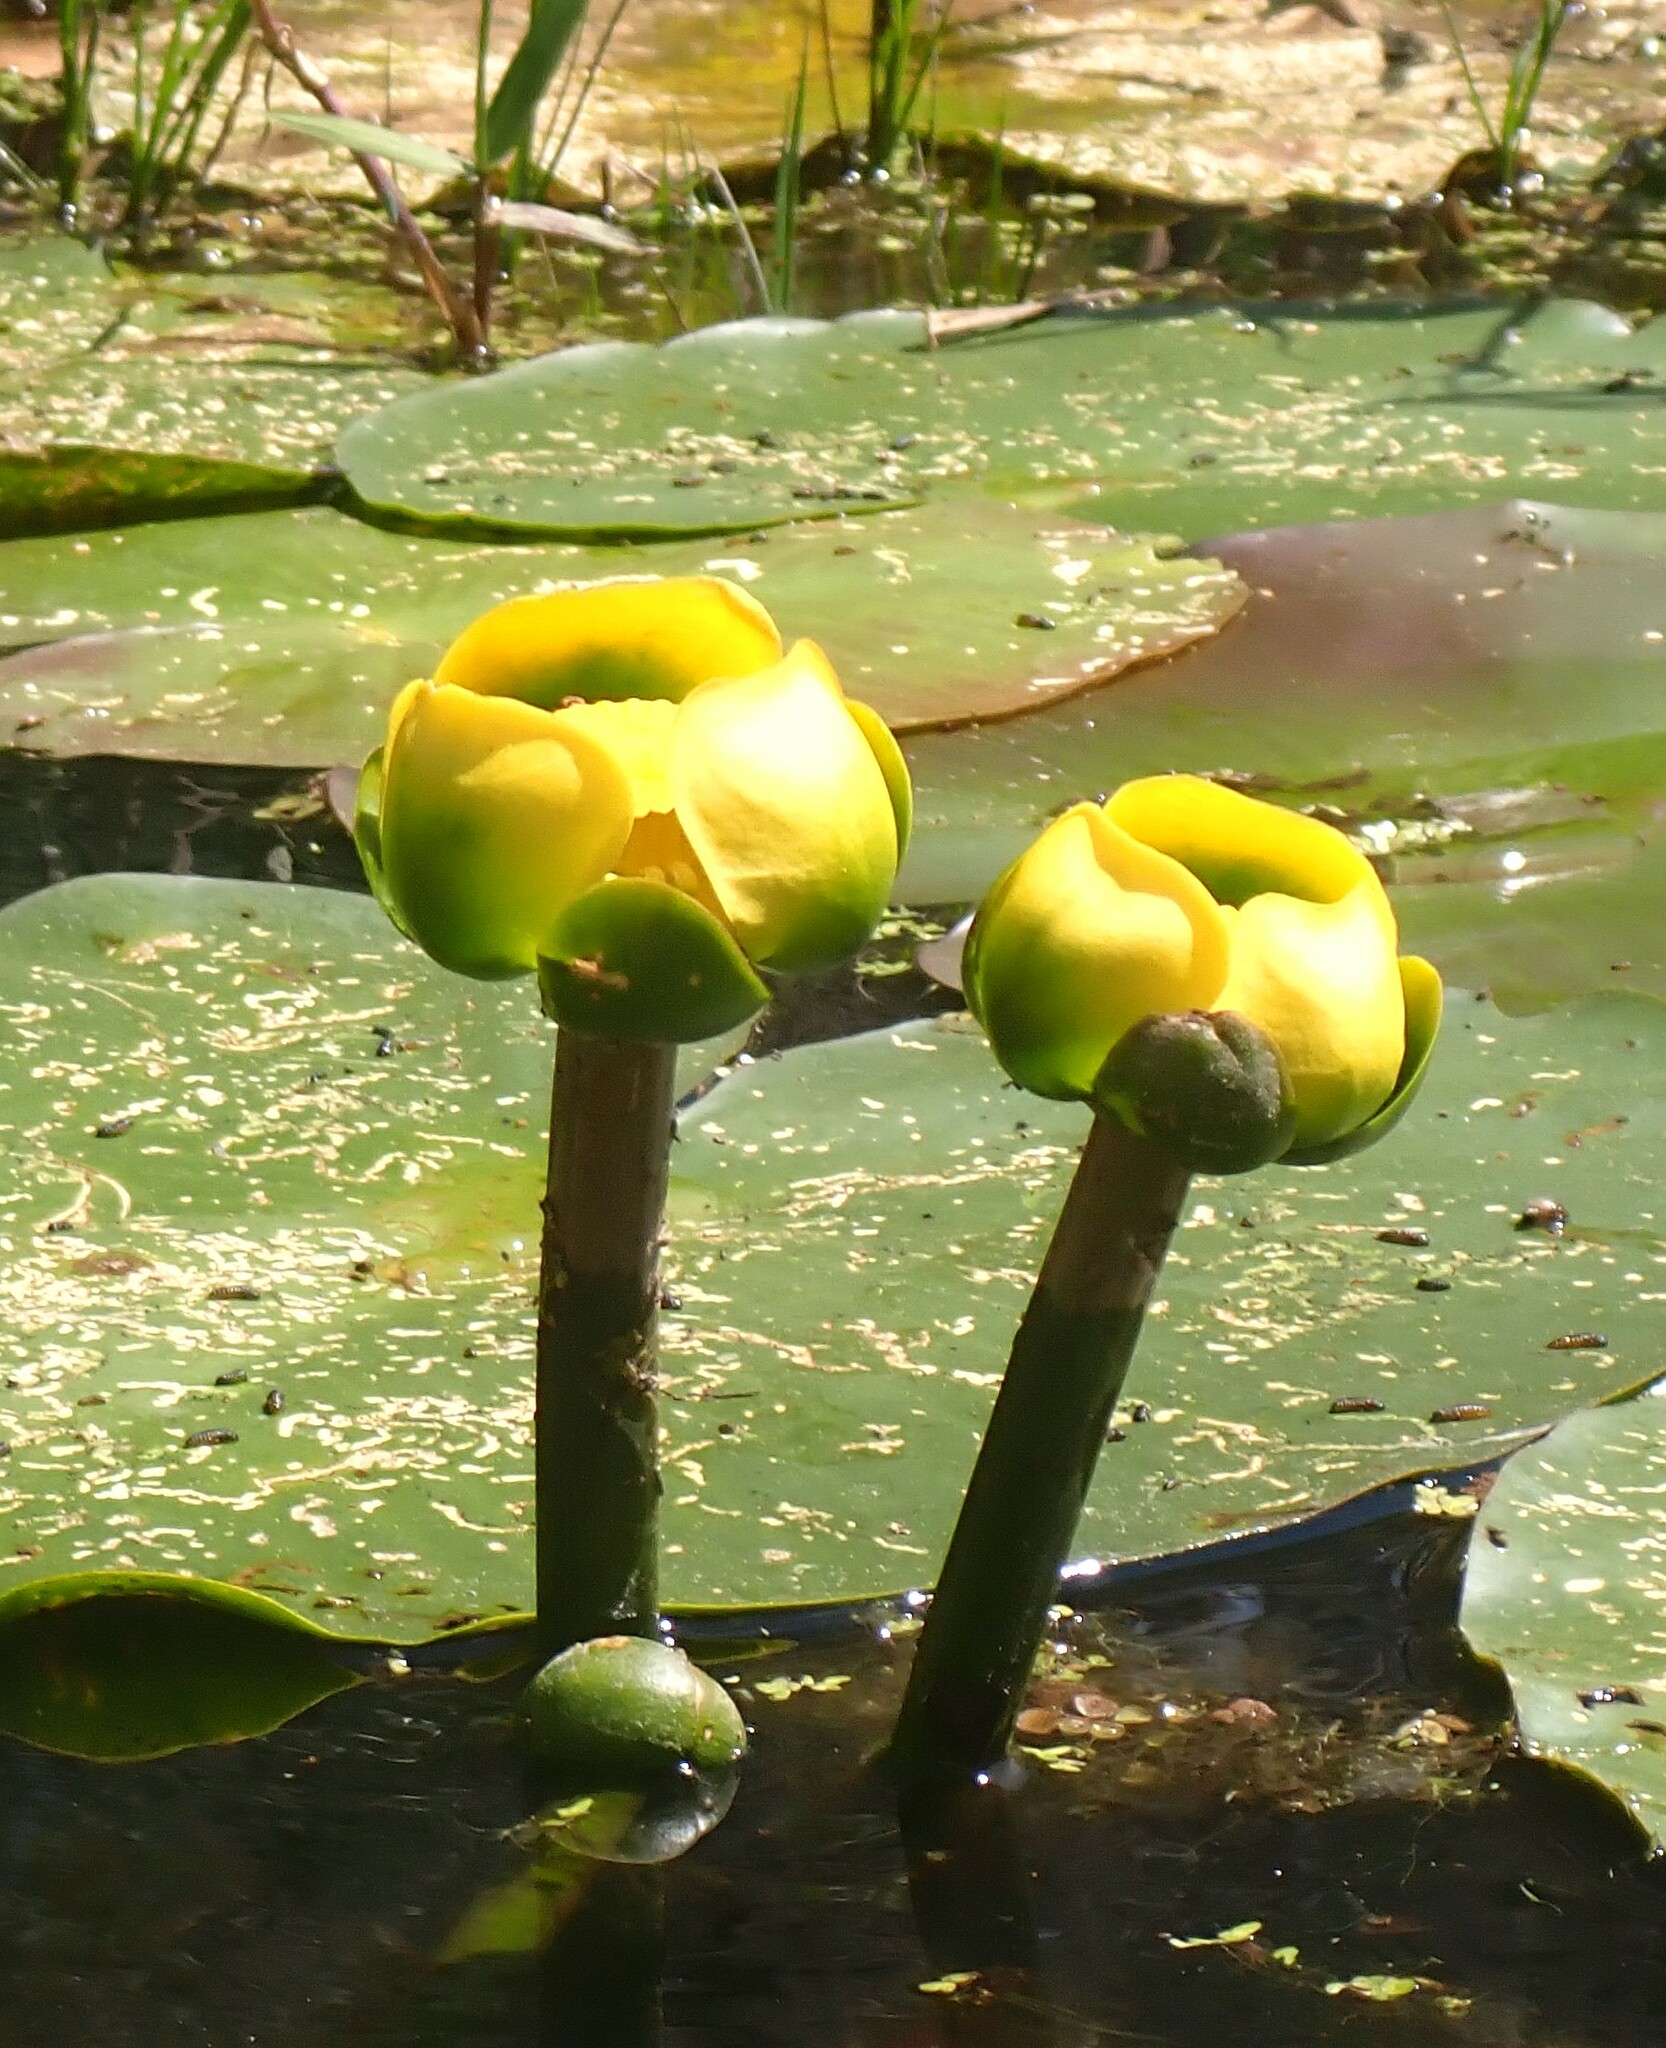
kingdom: Plantae
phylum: Tracheophyta
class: Magnoliopsida
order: Nymphaeales
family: Nymphaeaceae
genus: Nuphar
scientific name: Nuphar advena
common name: Spatter-dock
